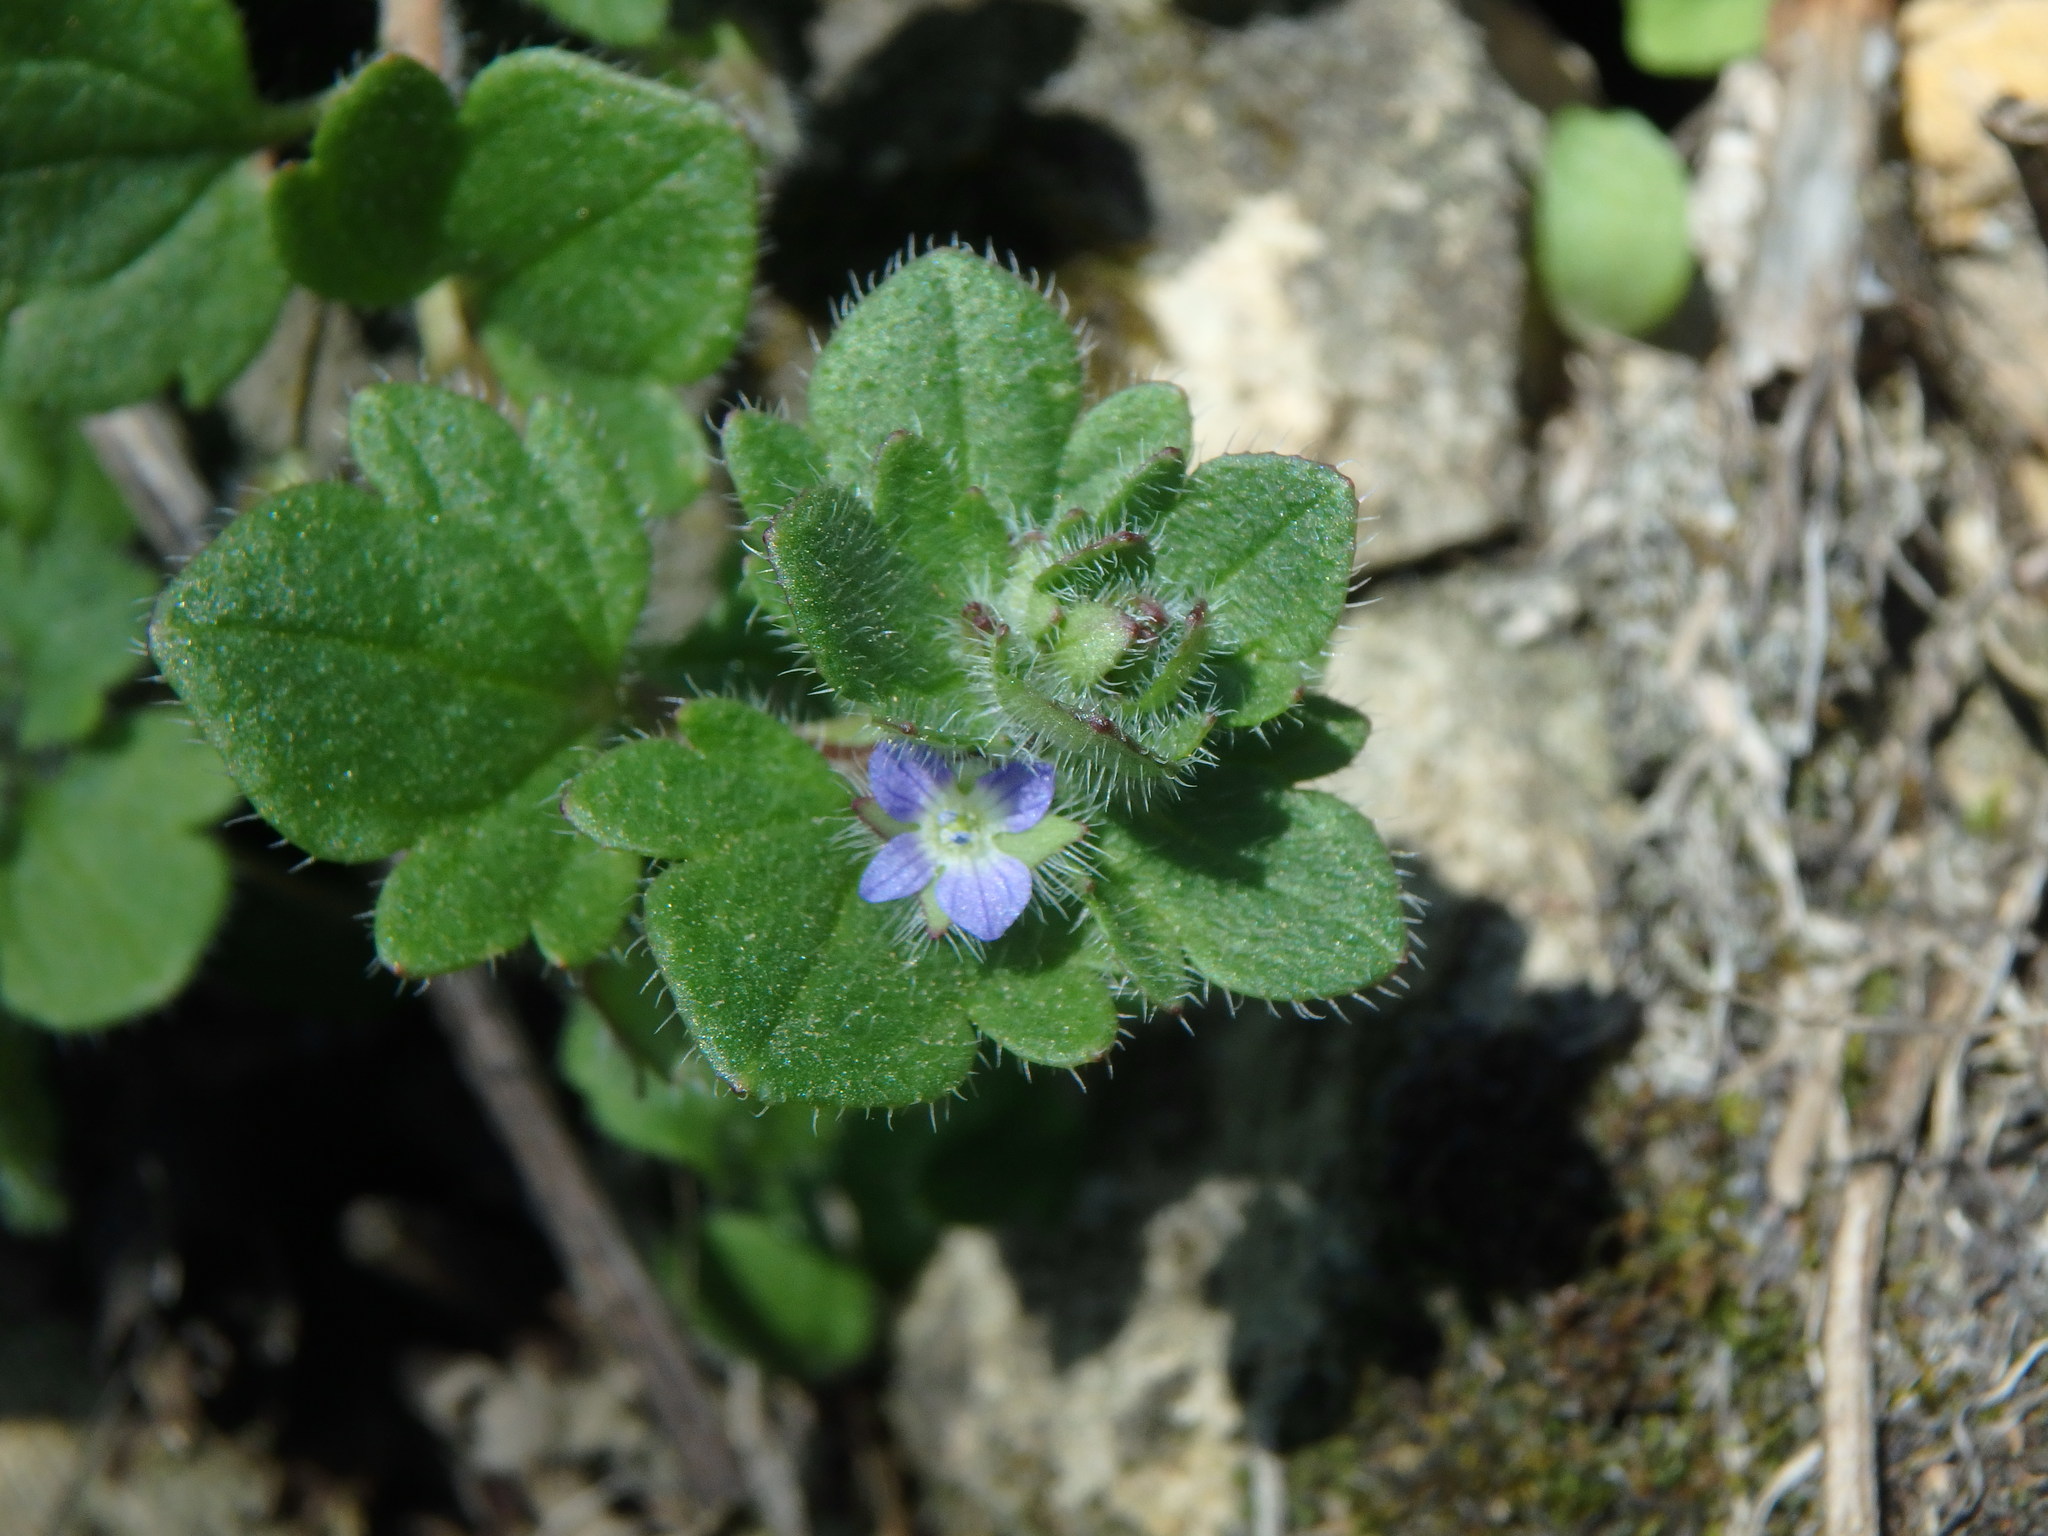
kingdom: Plantae
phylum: Tracheophyta
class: Magnoliopsida
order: Lamiales
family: Plantaginaceae
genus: Veronica
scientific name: Veronica hederifolia
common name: Ivy-leaved speedwell
